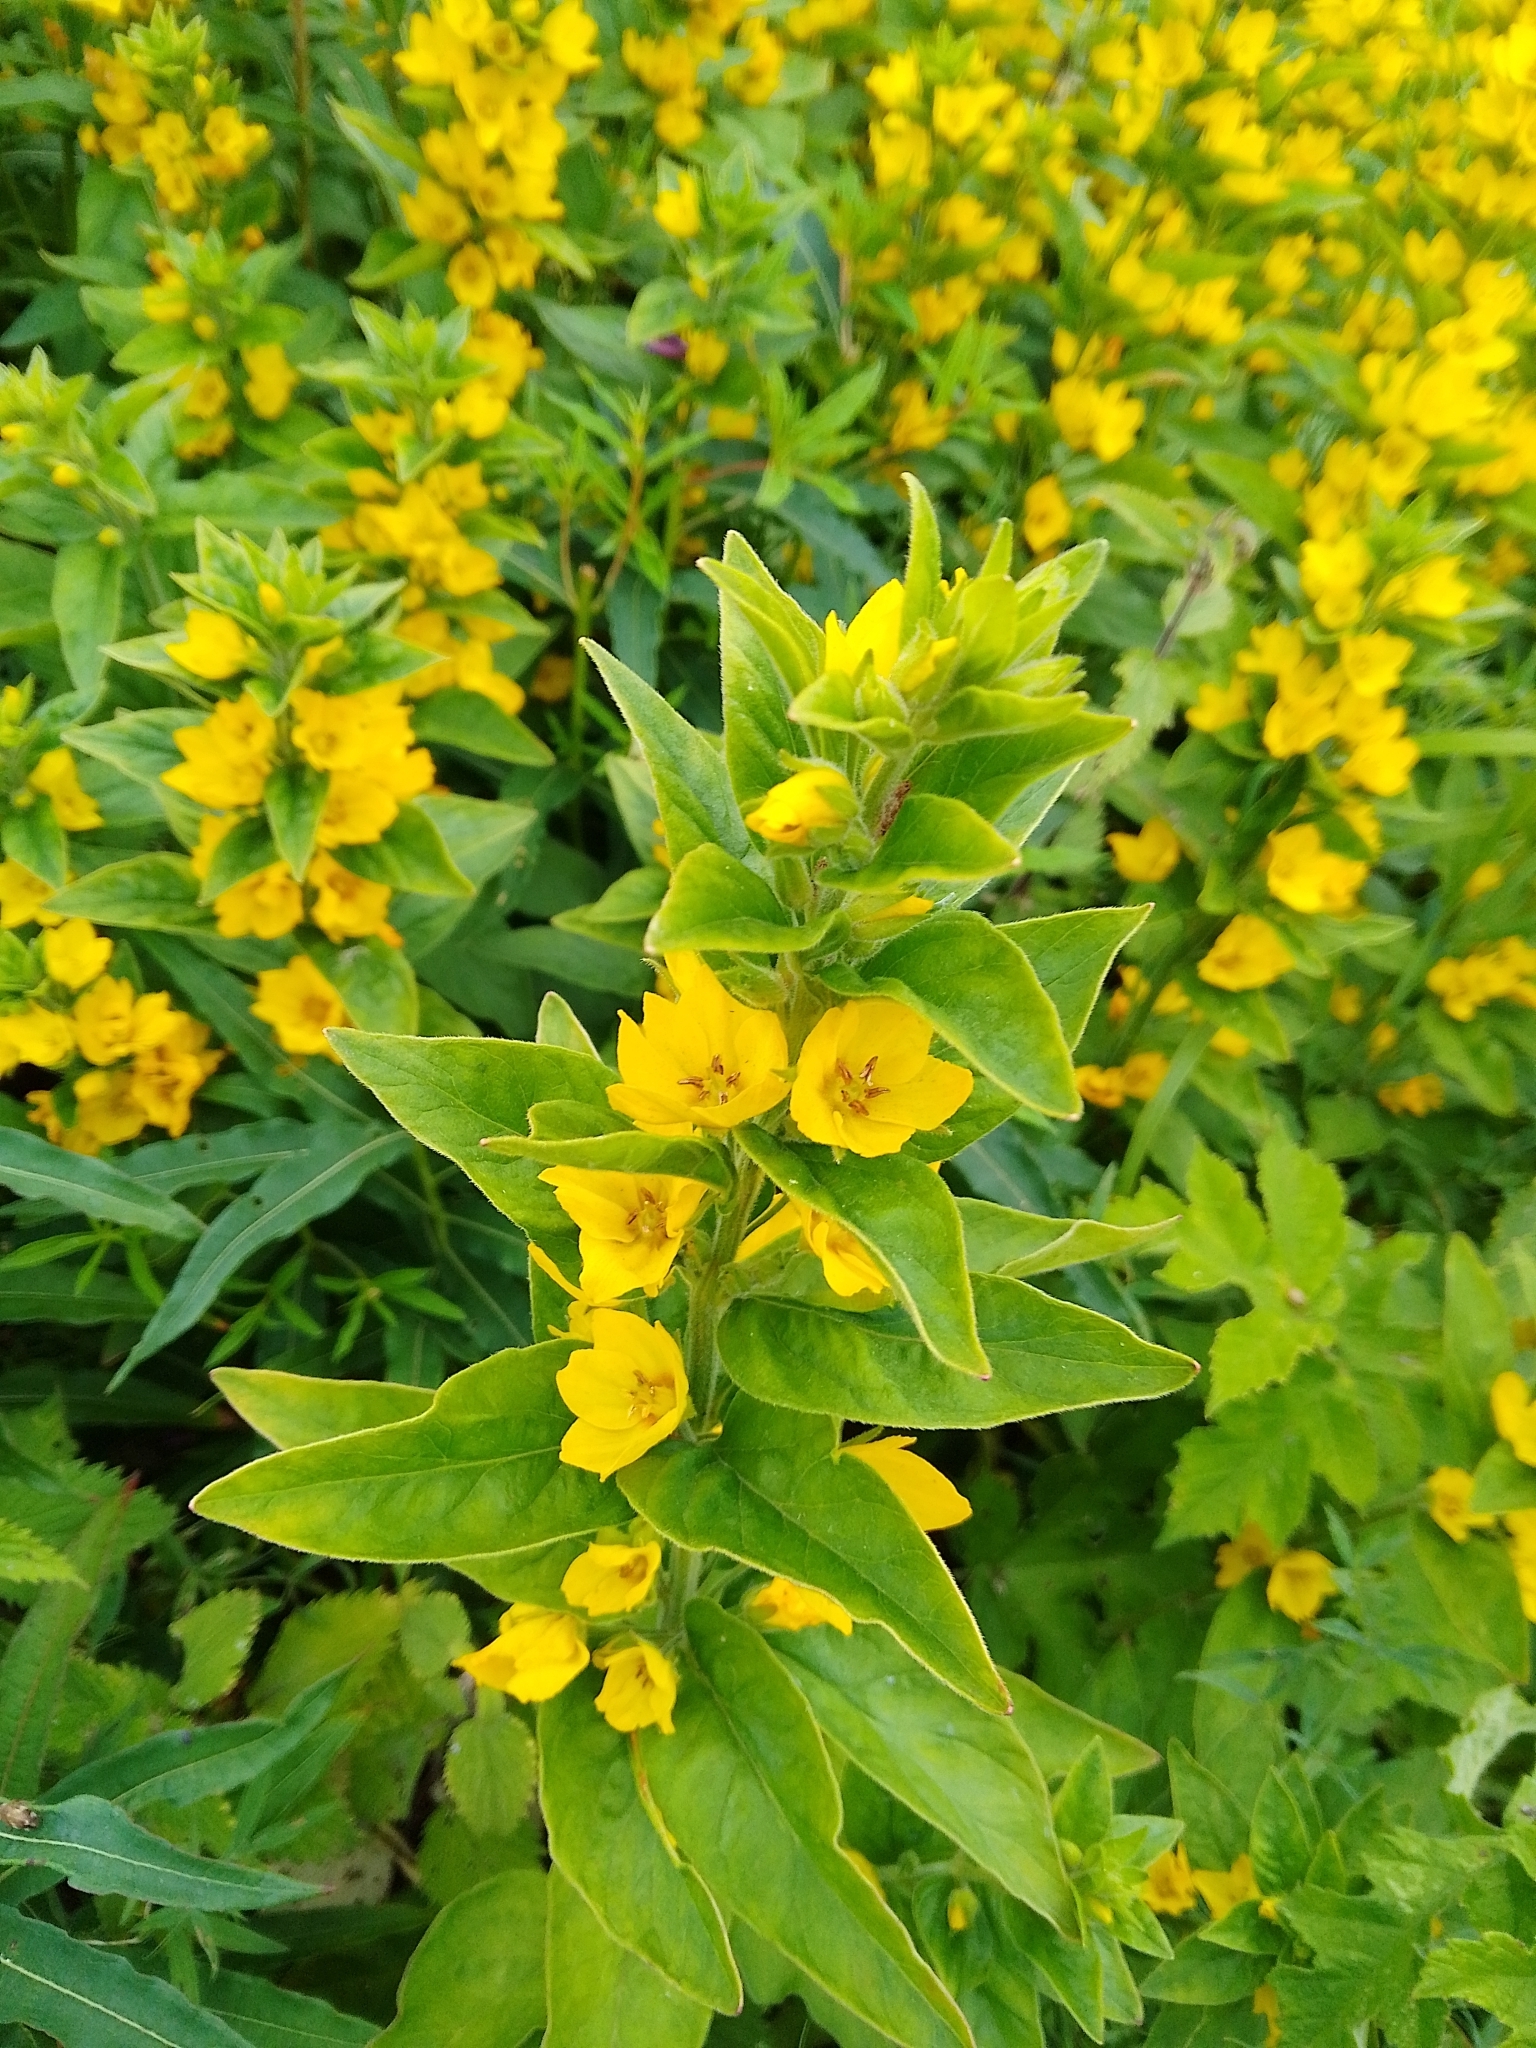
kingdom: Plantae
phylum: Tracheophyta
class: Magnoliopsida
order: Ericales
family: Primulaceae
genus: Lysimachia
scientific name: Lysimachia punctata
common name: Dotted loosestrife
